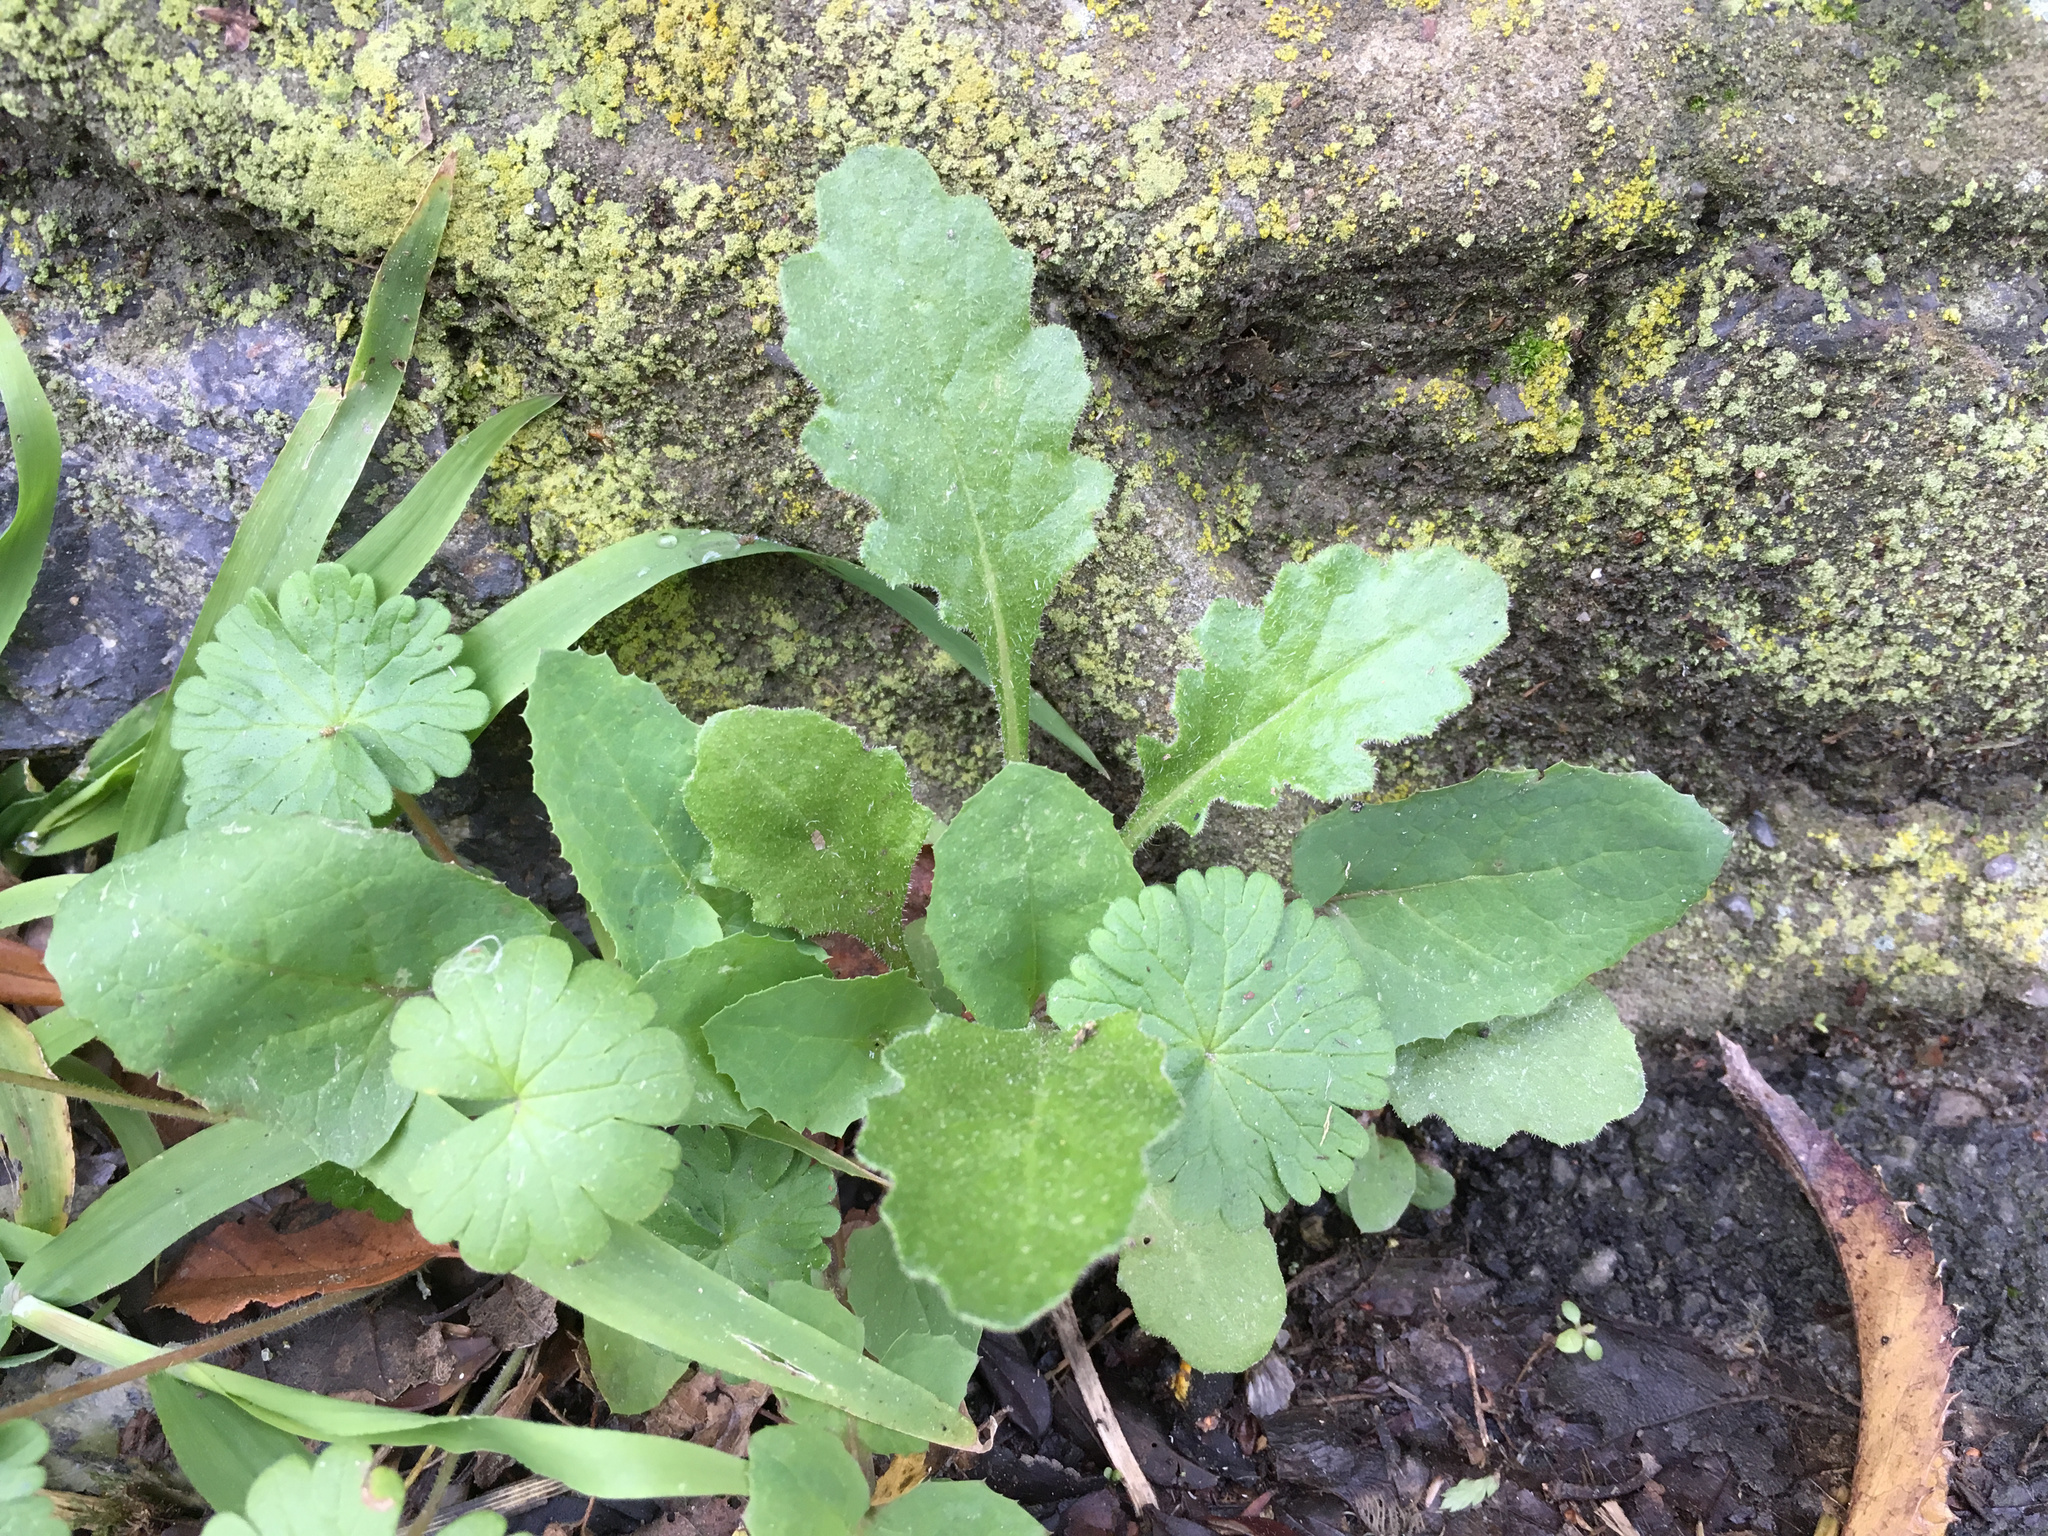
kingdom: Plantae
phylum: Tracheophyta
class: Magnoliopsida
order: Asterales
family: Asteraceae
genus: Senecio
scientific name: Senecio glomeratus
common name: Cutleaf burnweed
